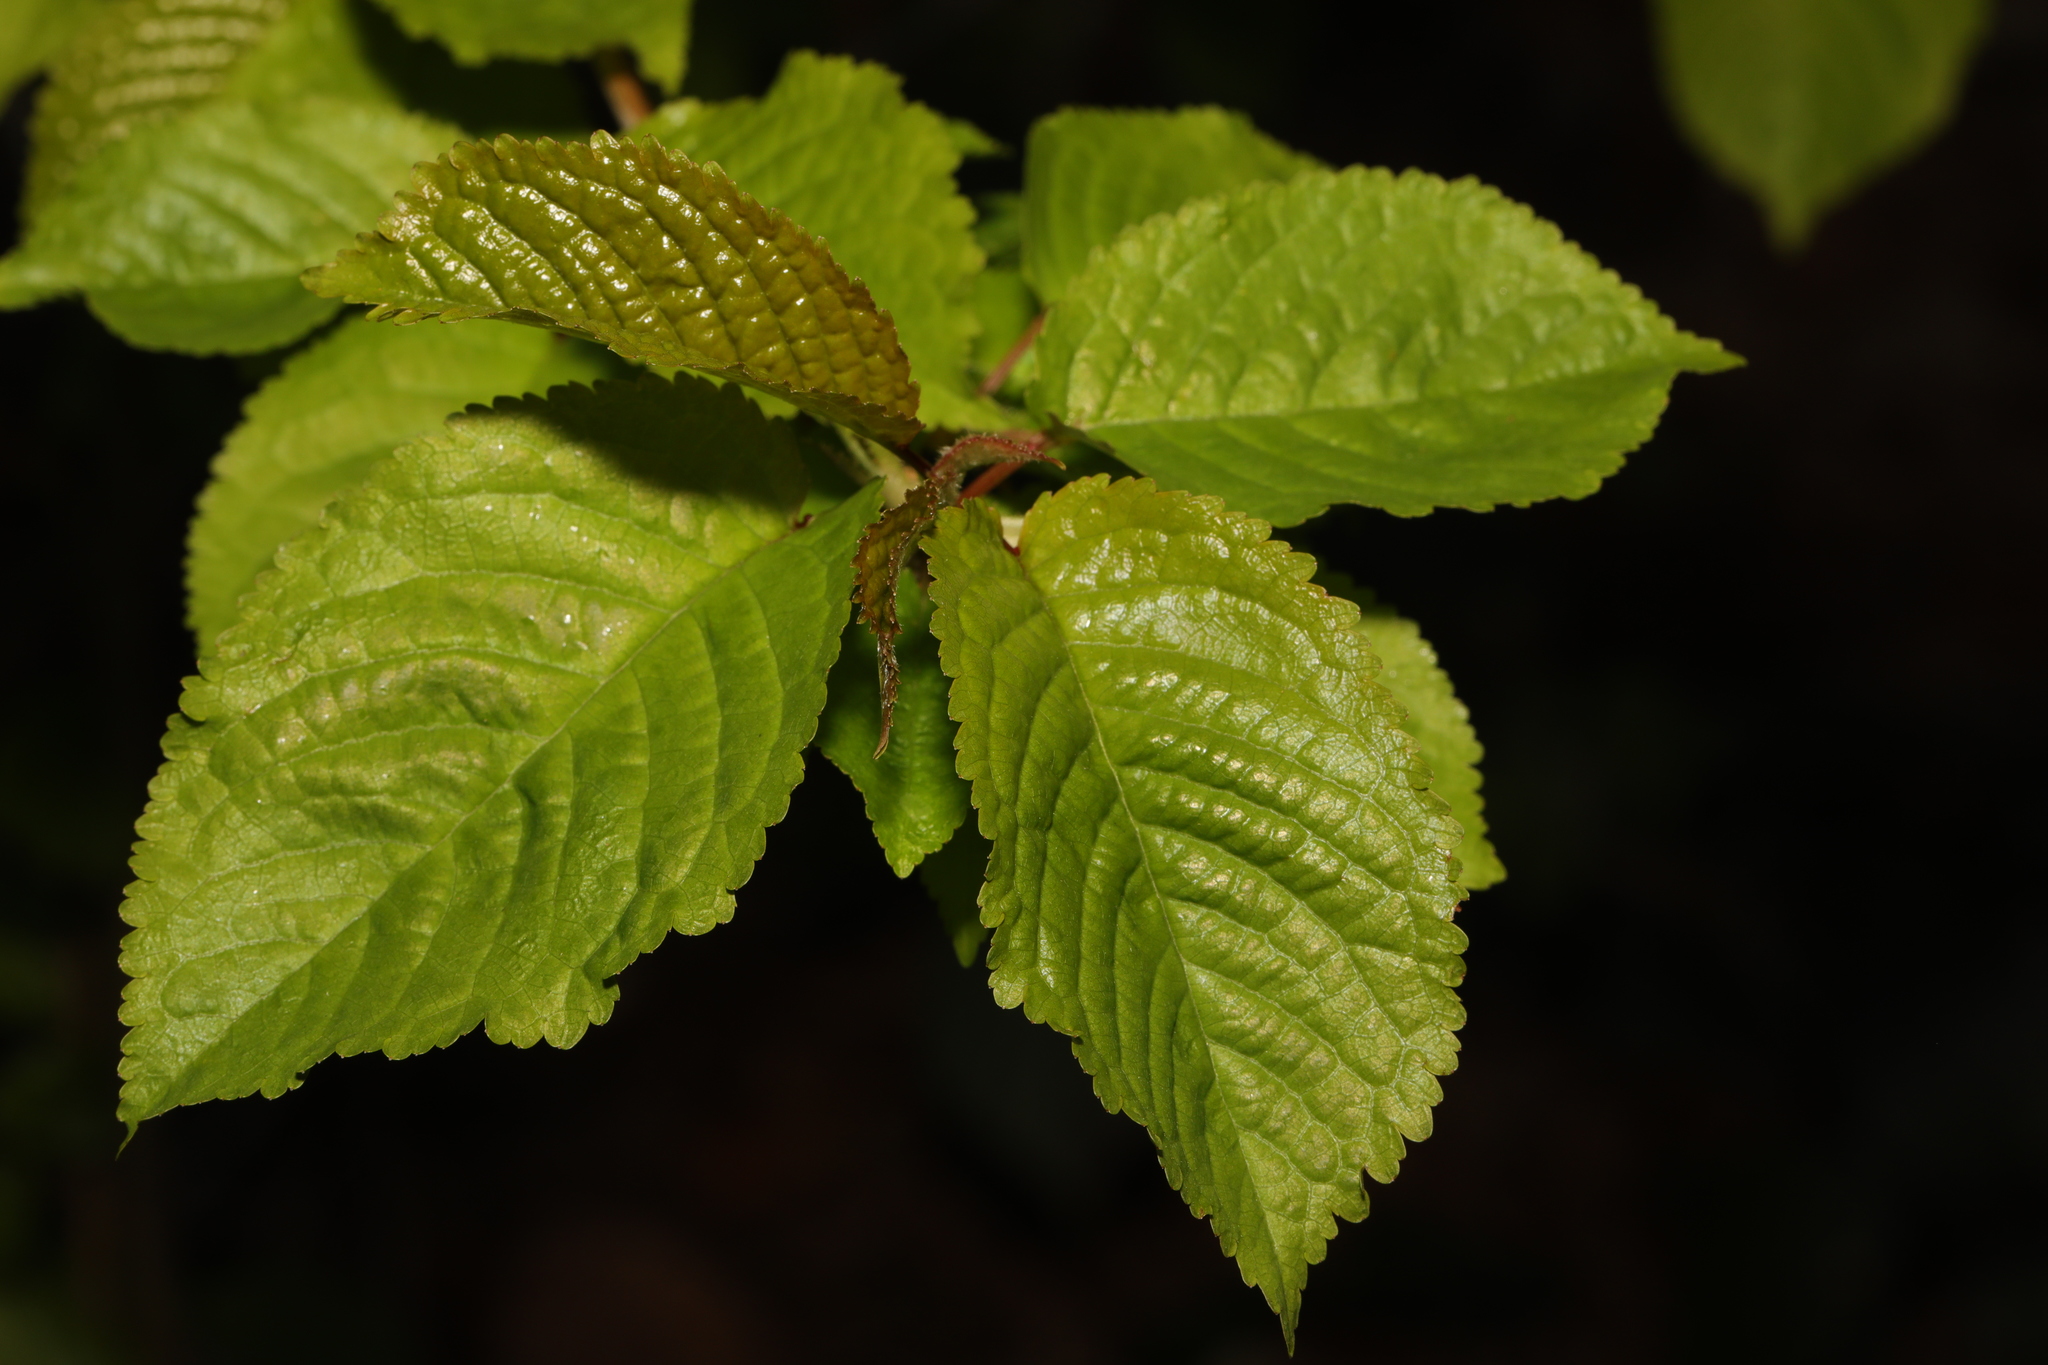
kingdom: Plantae
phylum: Tracheophyta
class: Magnoliopsida
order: Rosales
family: Rosaceae
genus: Prunus
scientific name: Prunus avium
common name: Sweet cherry
